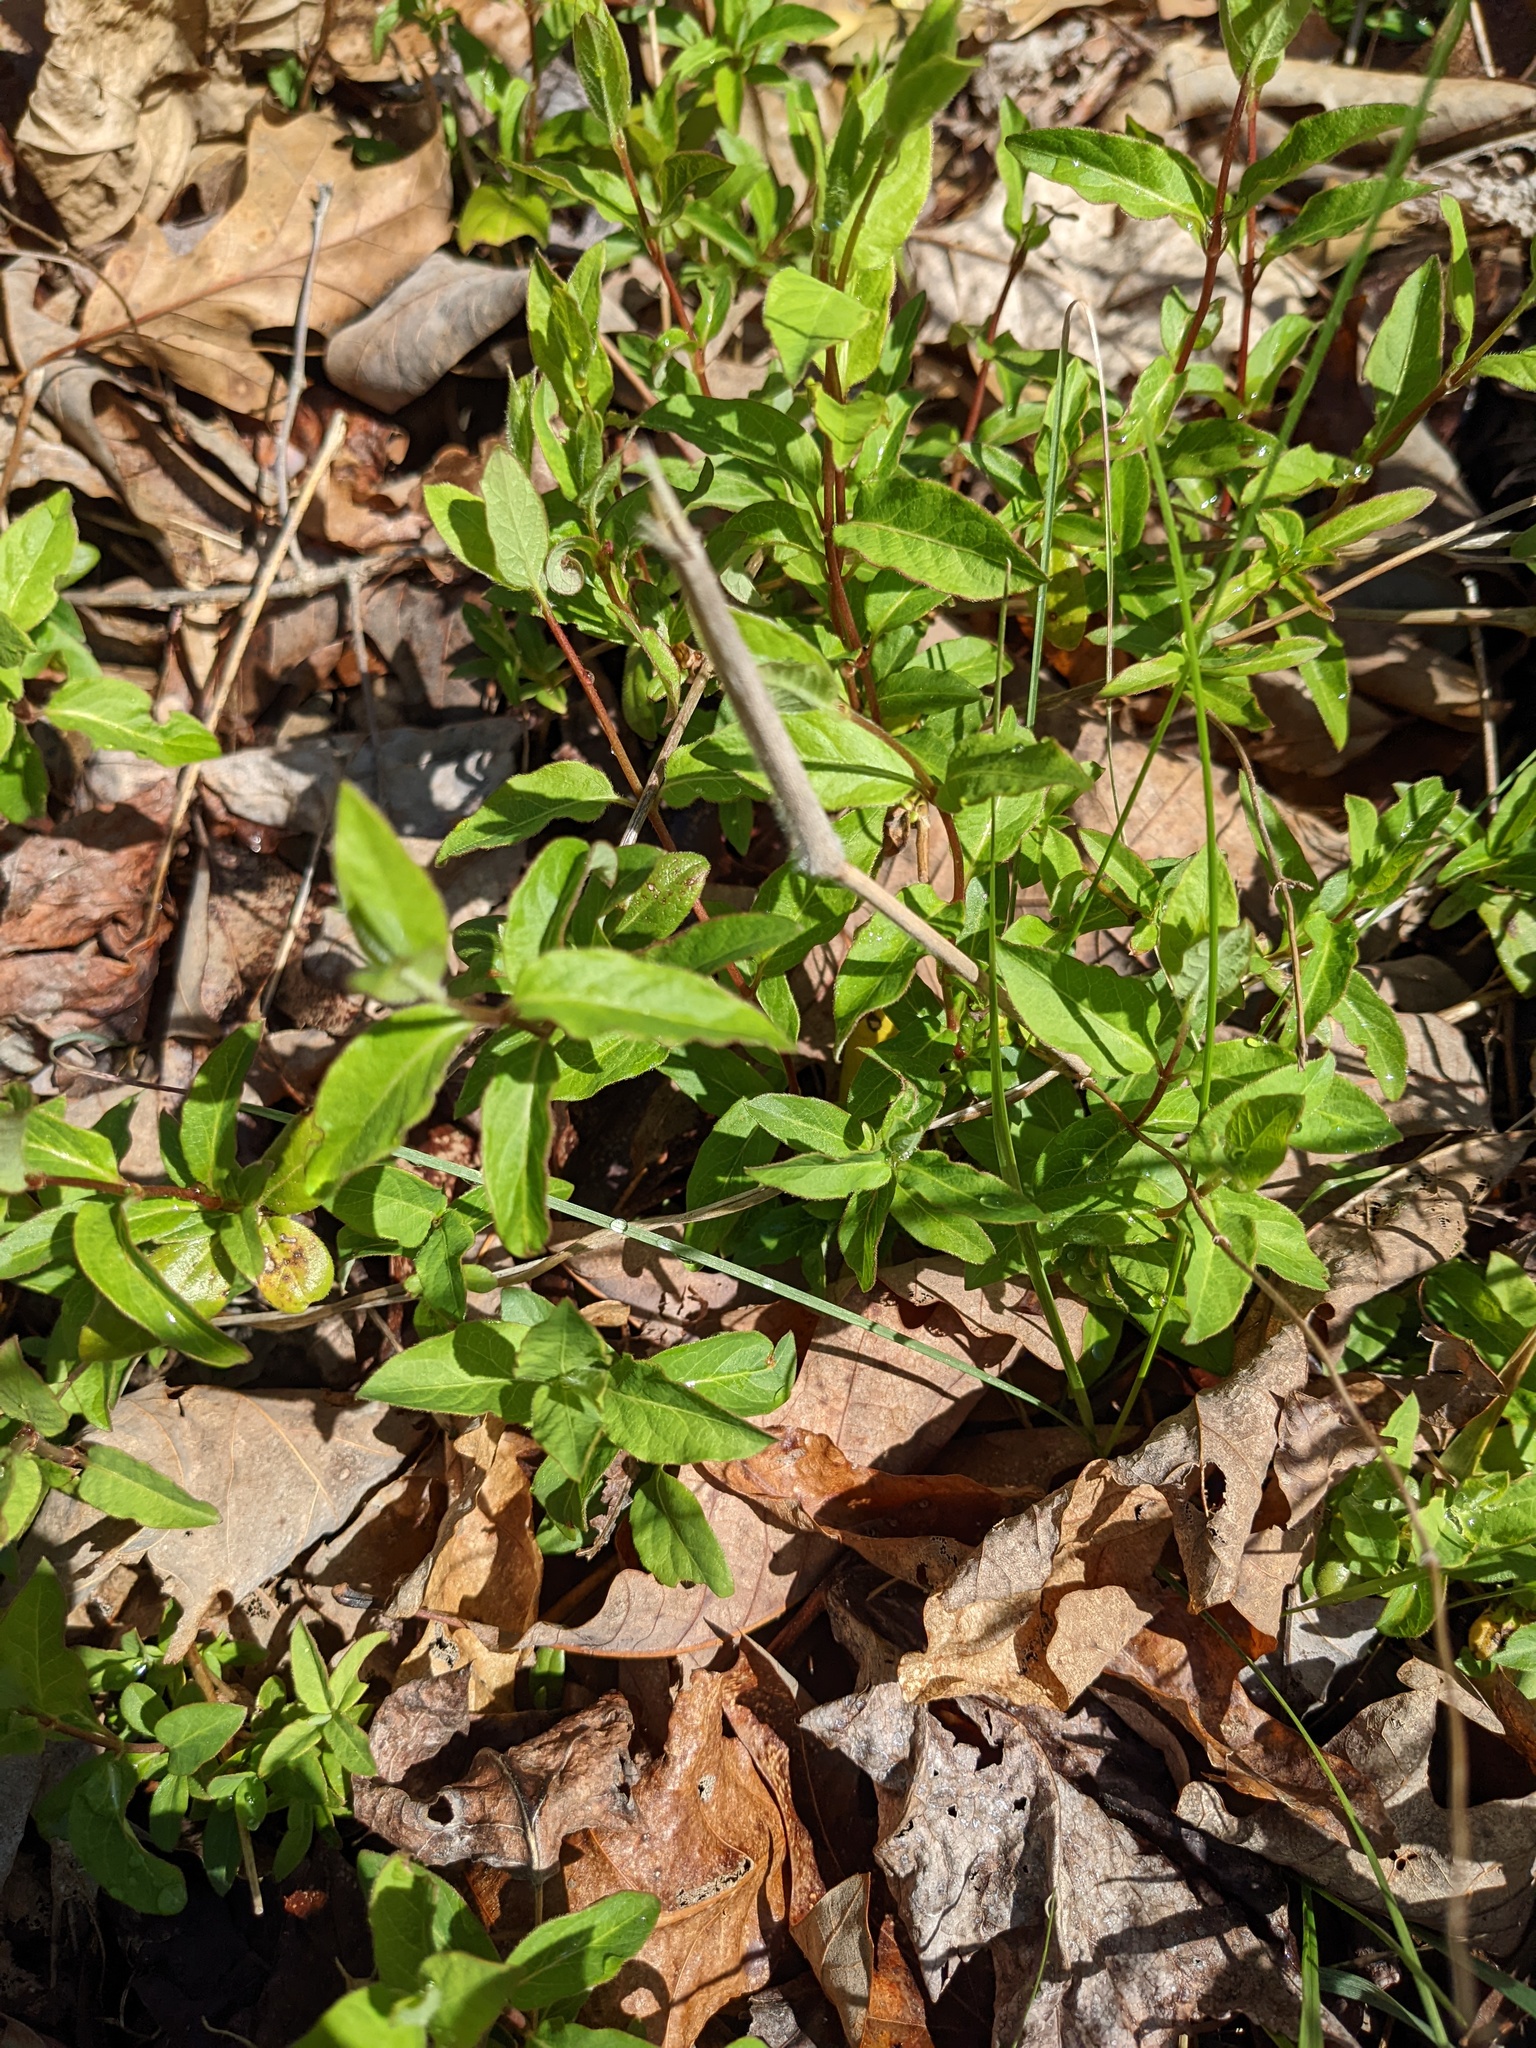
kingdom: Plantae
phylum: Tracheophyta
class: Magnoliopsida
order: Dipsacales
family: Caprifoliaceae
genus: Lonicera
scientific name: Lonicera japonica
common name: Japanese honeysuckle
